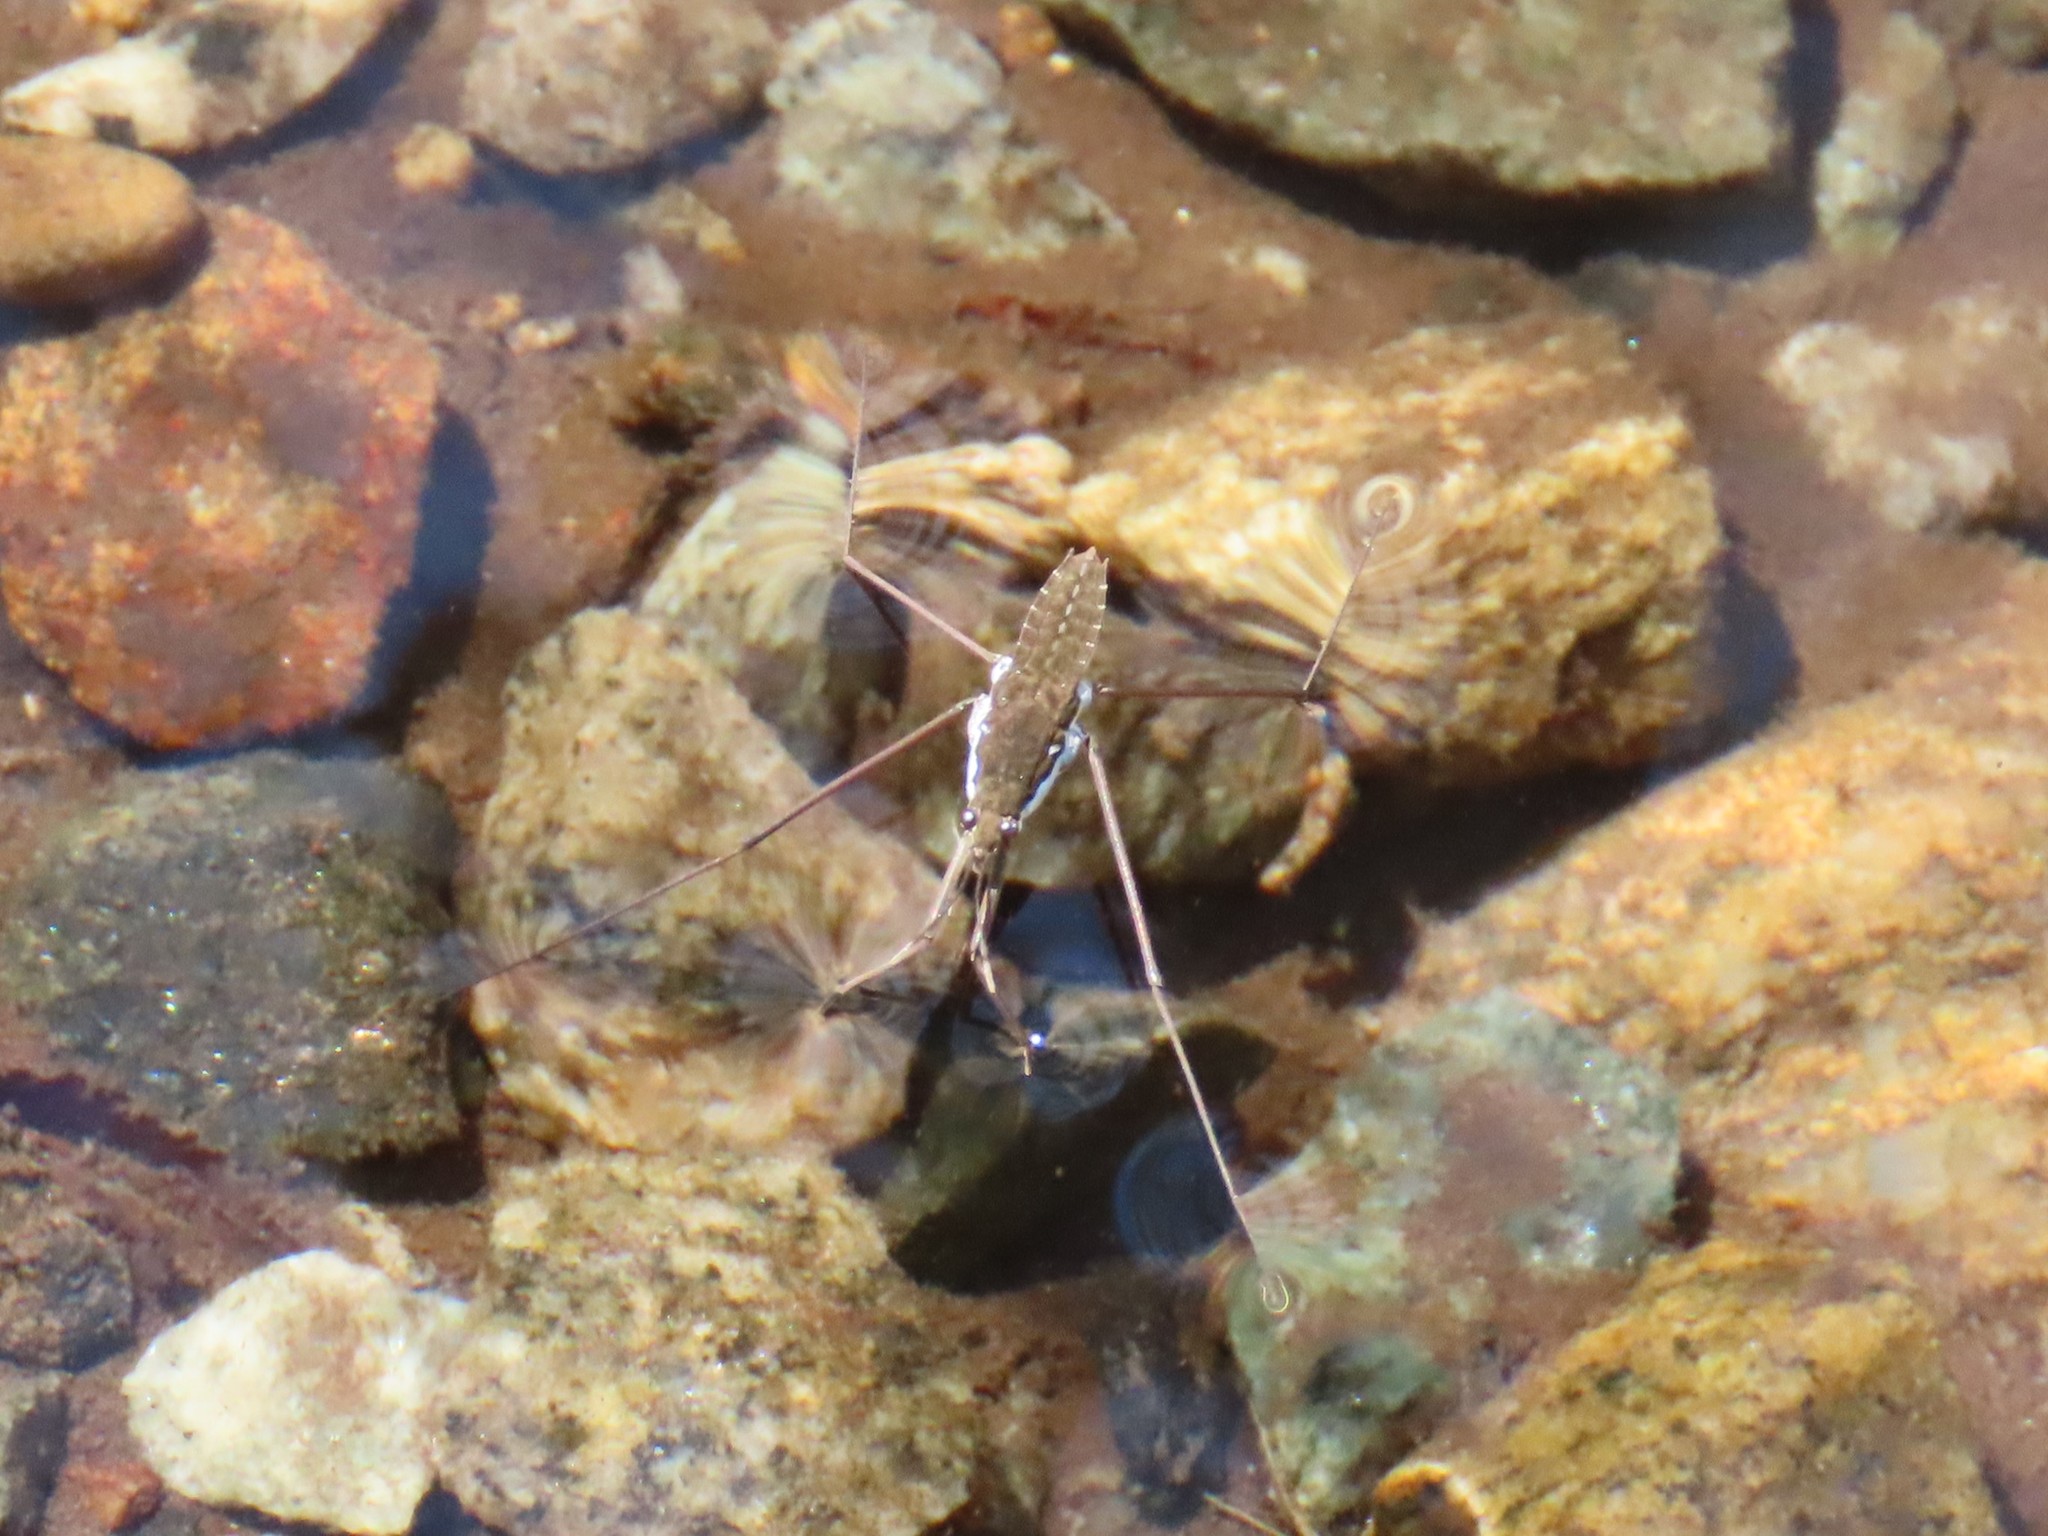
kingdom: Animalia
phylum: Arthropoda
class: Insecta
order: Hemiptera
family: Gerridae
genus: Aquarius
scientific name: Aquarius remigis
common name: Common water strider
